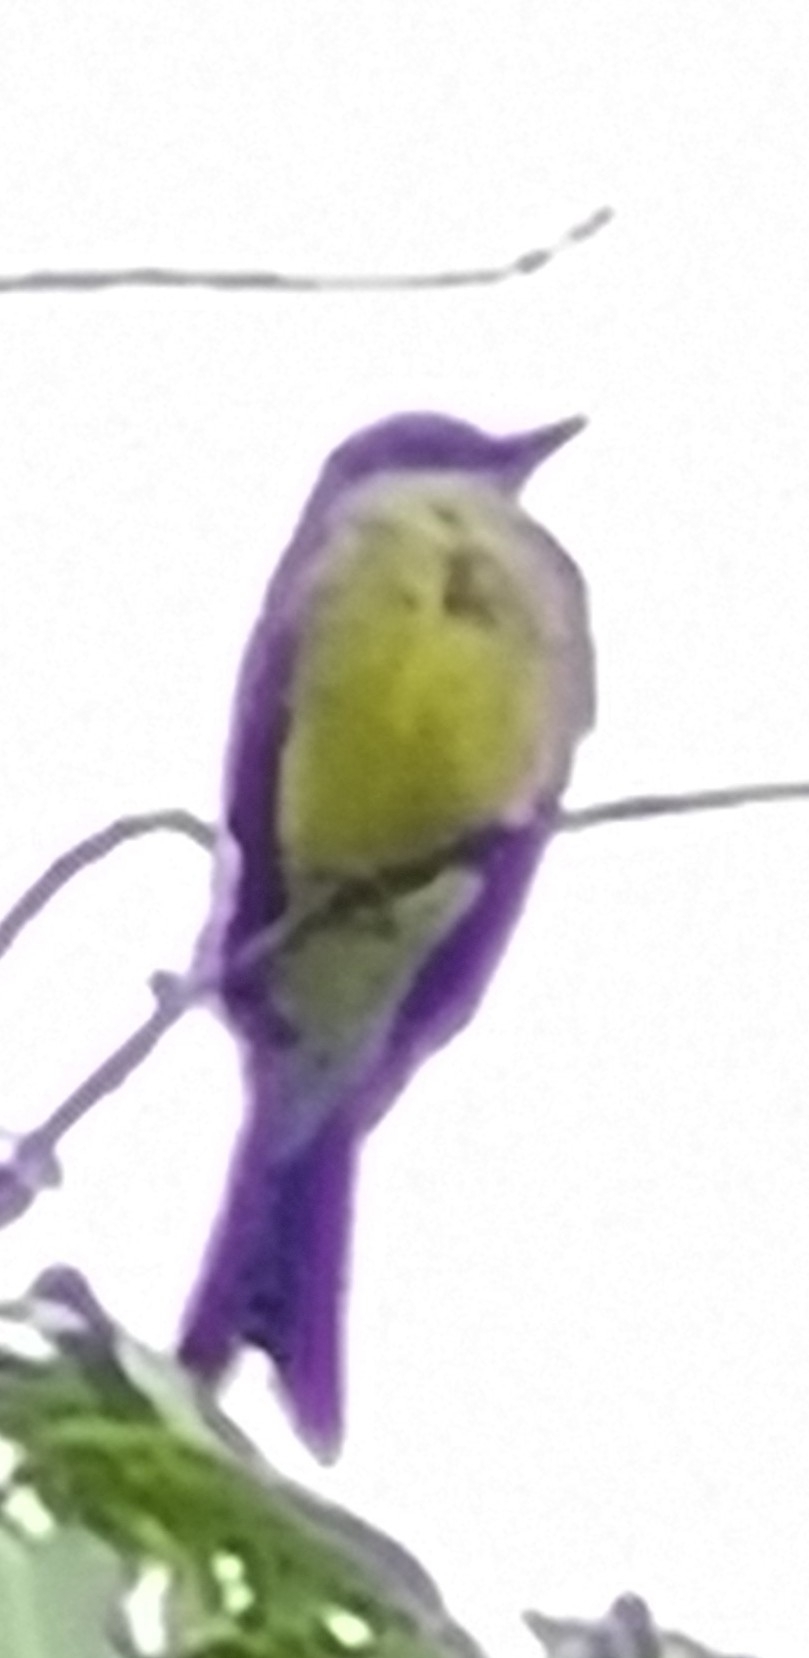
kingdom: Animalia
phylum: Chordata
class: Aves
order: Passeriformes
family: Tyrannidae
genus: Tyrannus
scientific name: Tyrannus melancholicus
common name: Tropical kingbird
